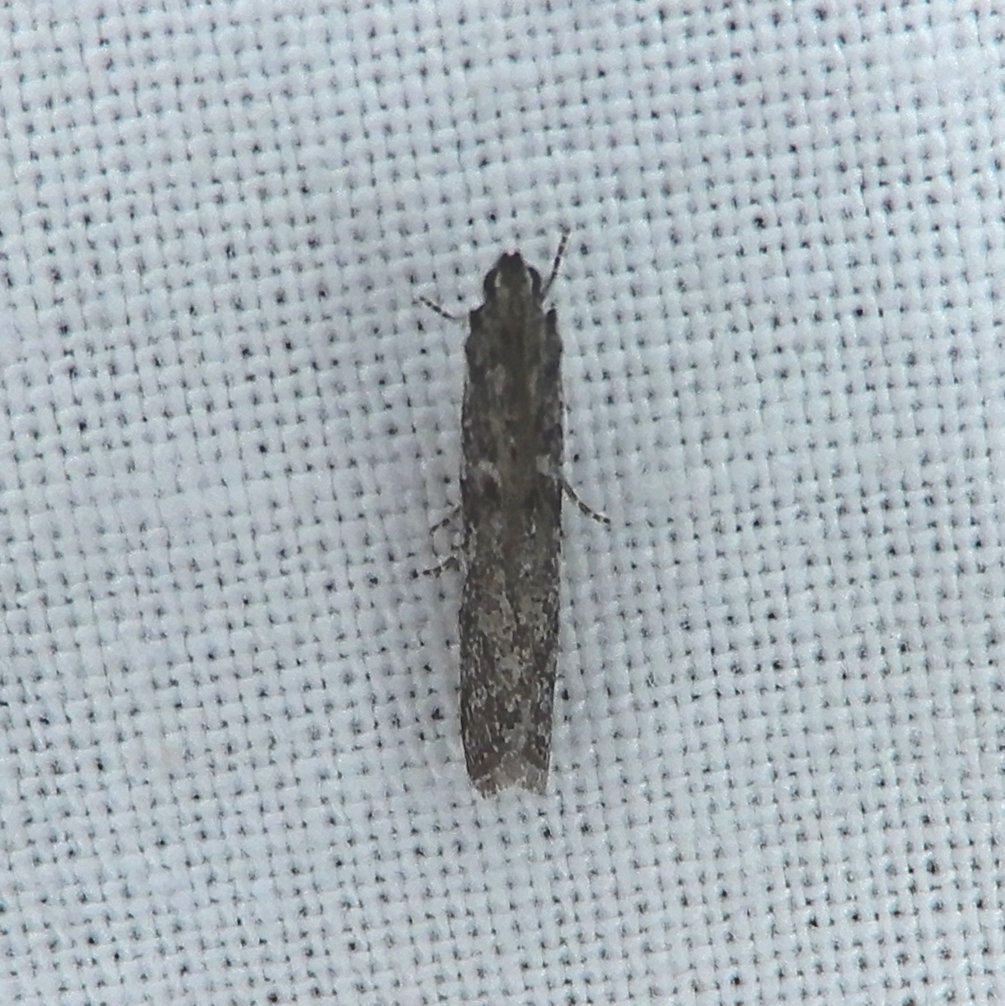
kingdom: Animalia
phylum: Arthropoda
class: Insecta
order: Lepidoptera
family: Pyralidae
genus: Phycitodes
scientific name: Phycitodes mucidellus
